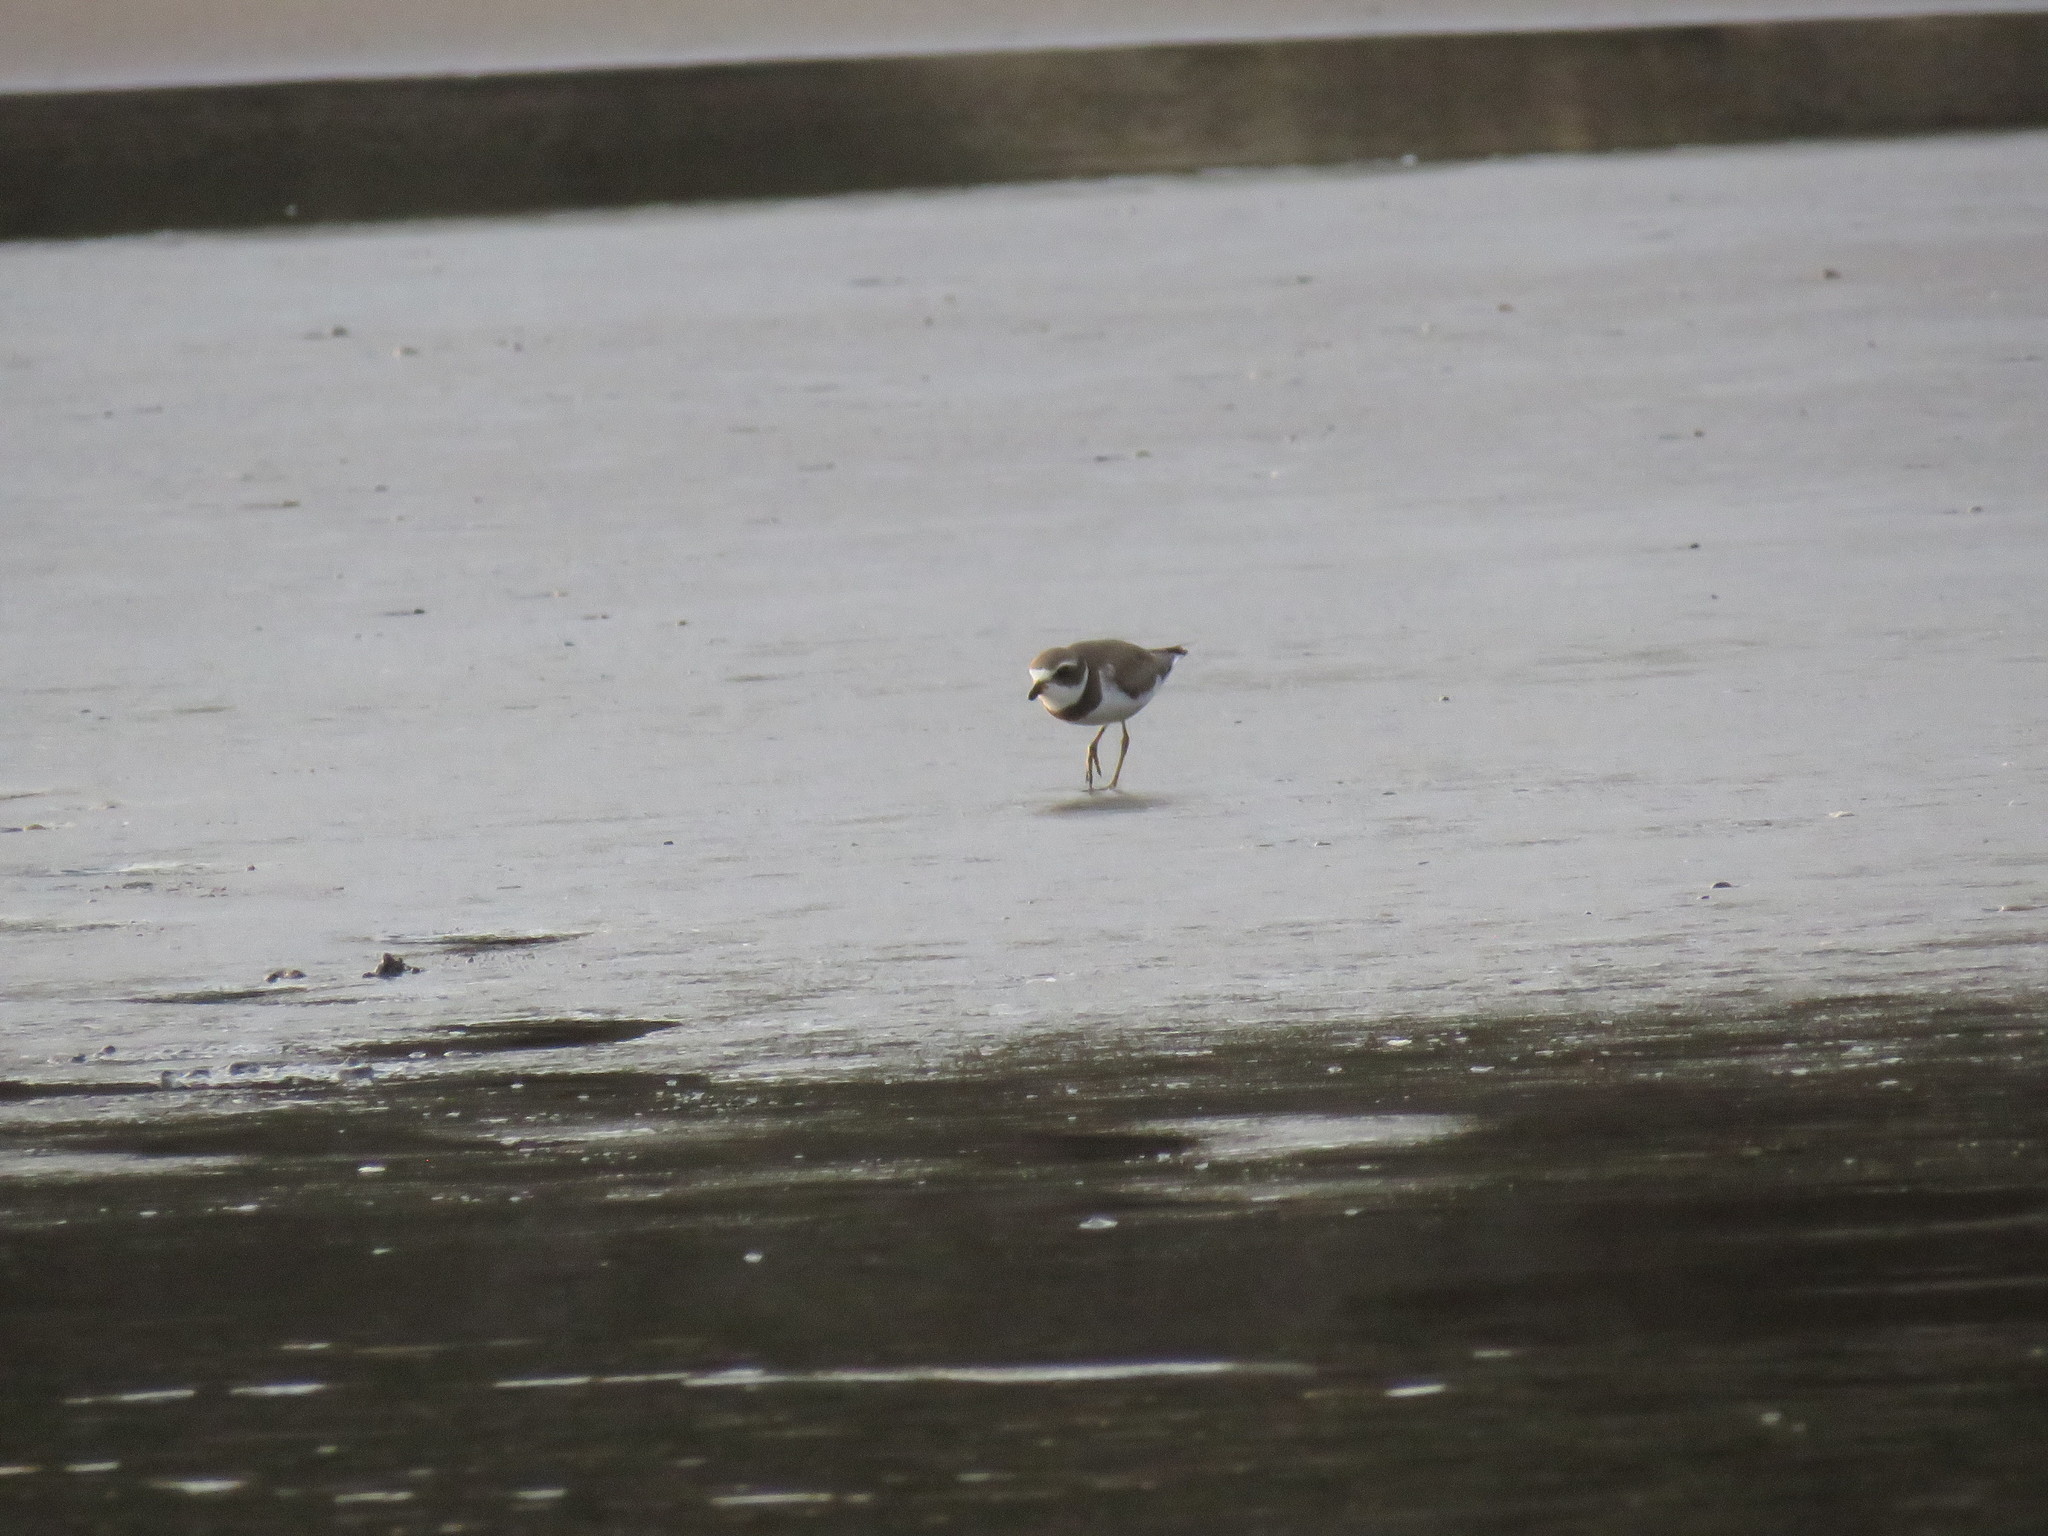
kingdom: Animalia
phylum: Chordata
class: Aves
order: Charadriiformes
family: Charadriidae
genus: Charadrius
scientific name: Charadrius semipalmatus
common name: Semipalmated plover
